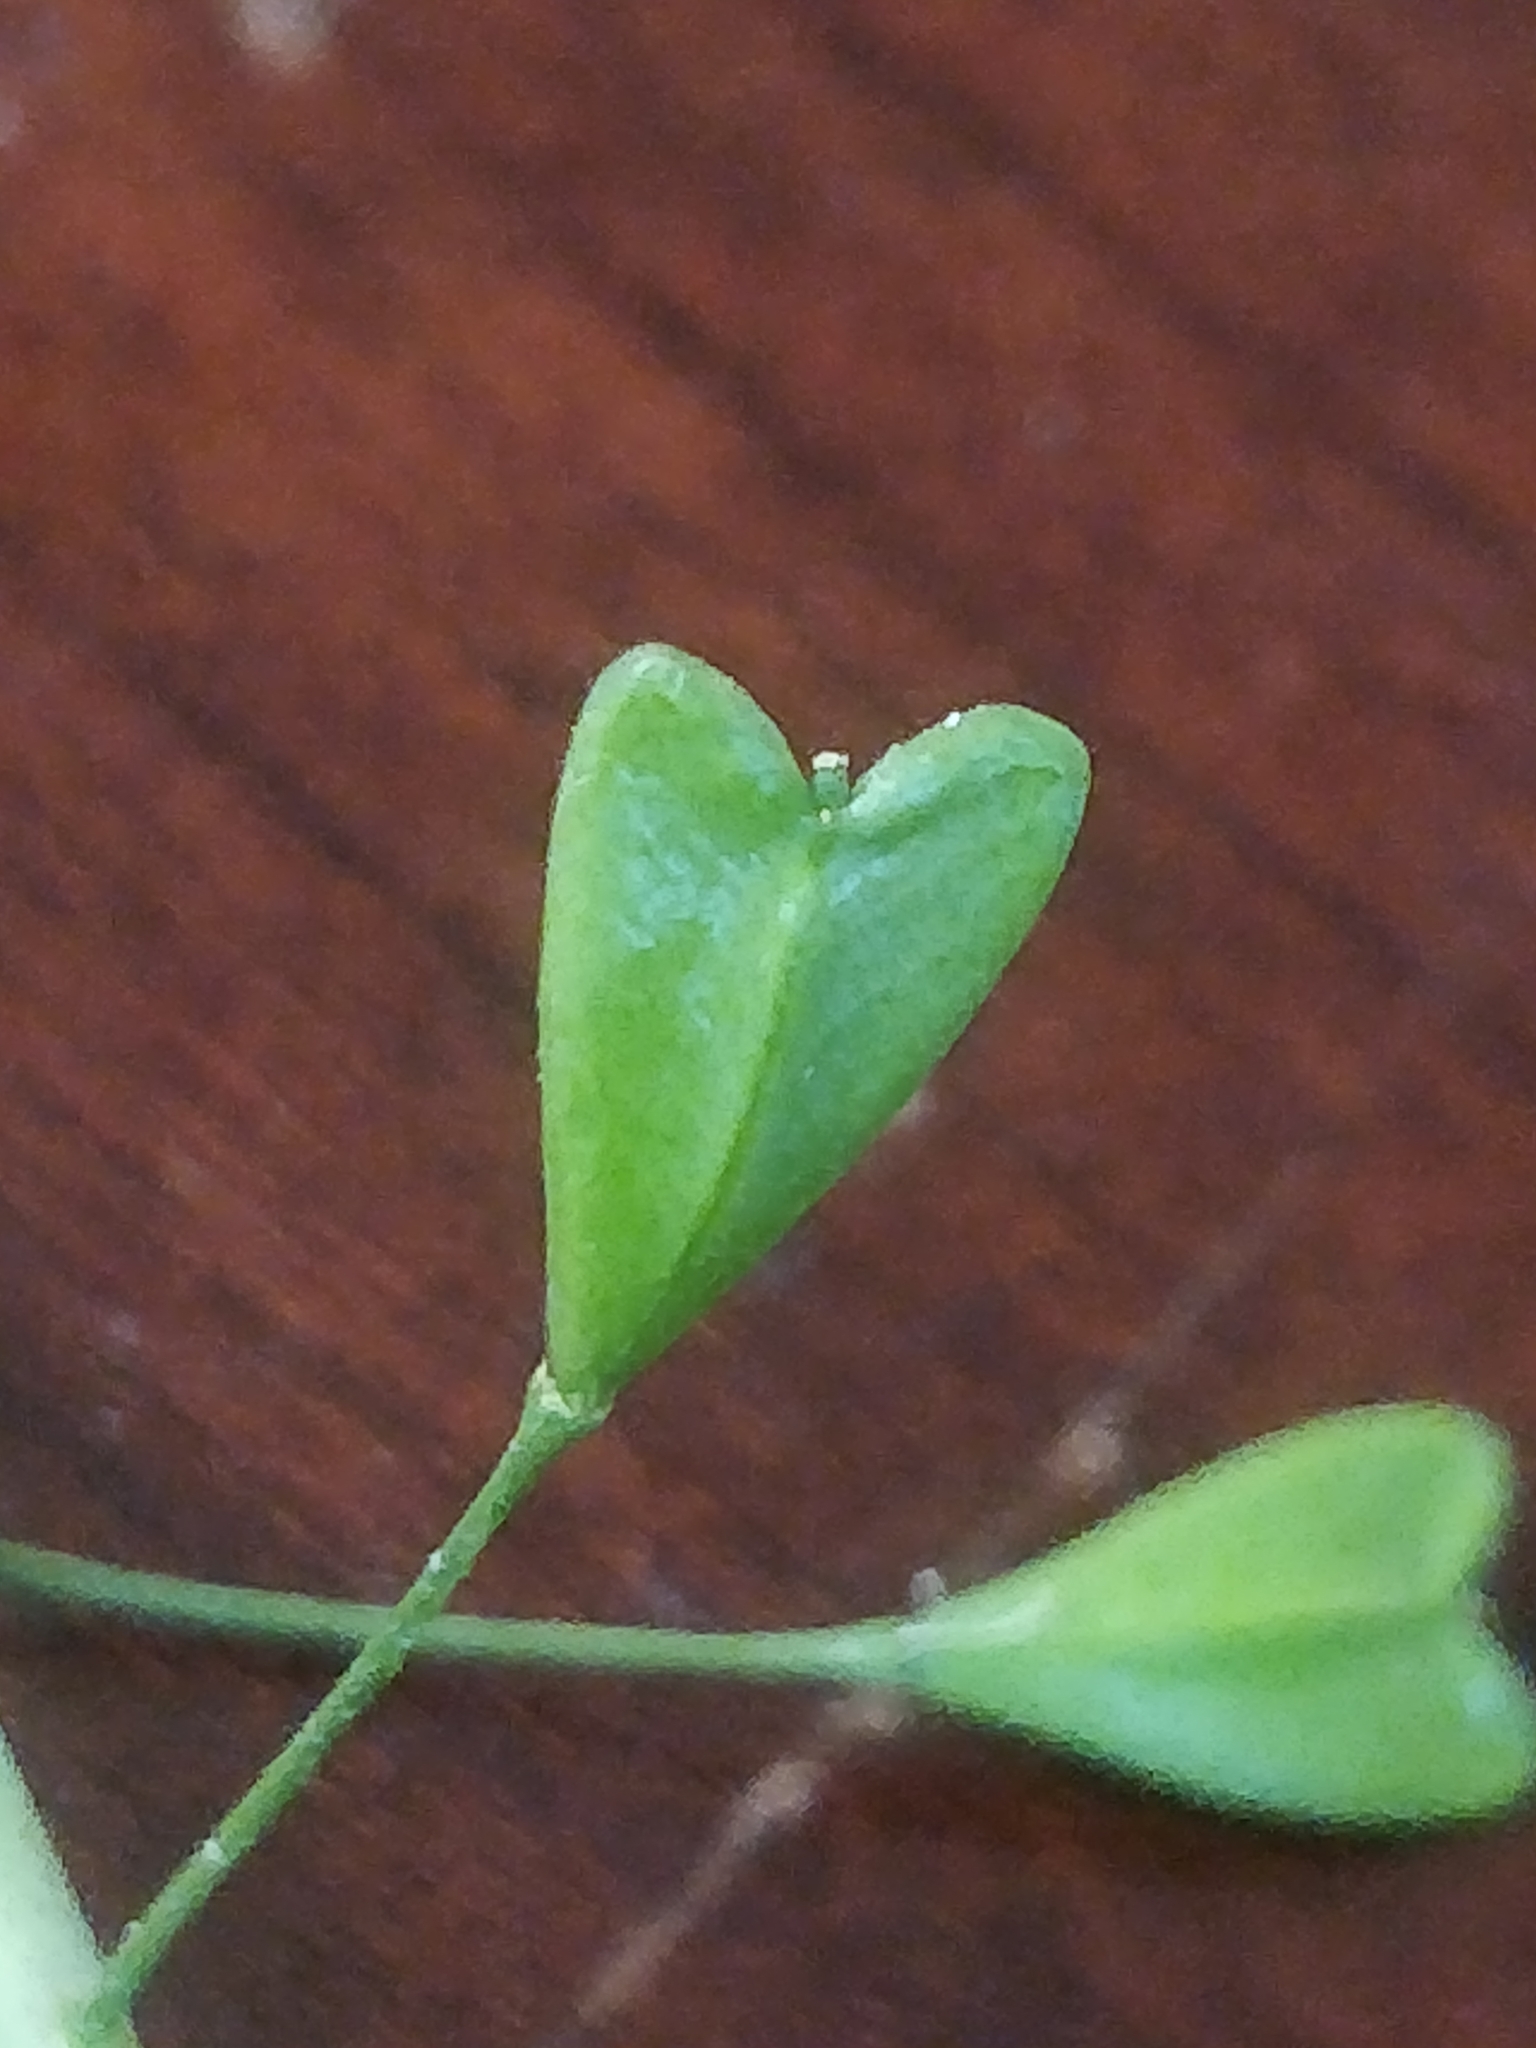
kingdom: Plantae
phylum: Tracheophyta
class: Magnoliopsida
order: Brassicales
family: Brassicaceae
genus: Capsella
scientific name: Capsella bursa-pastoris
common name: Shepherd's purse
